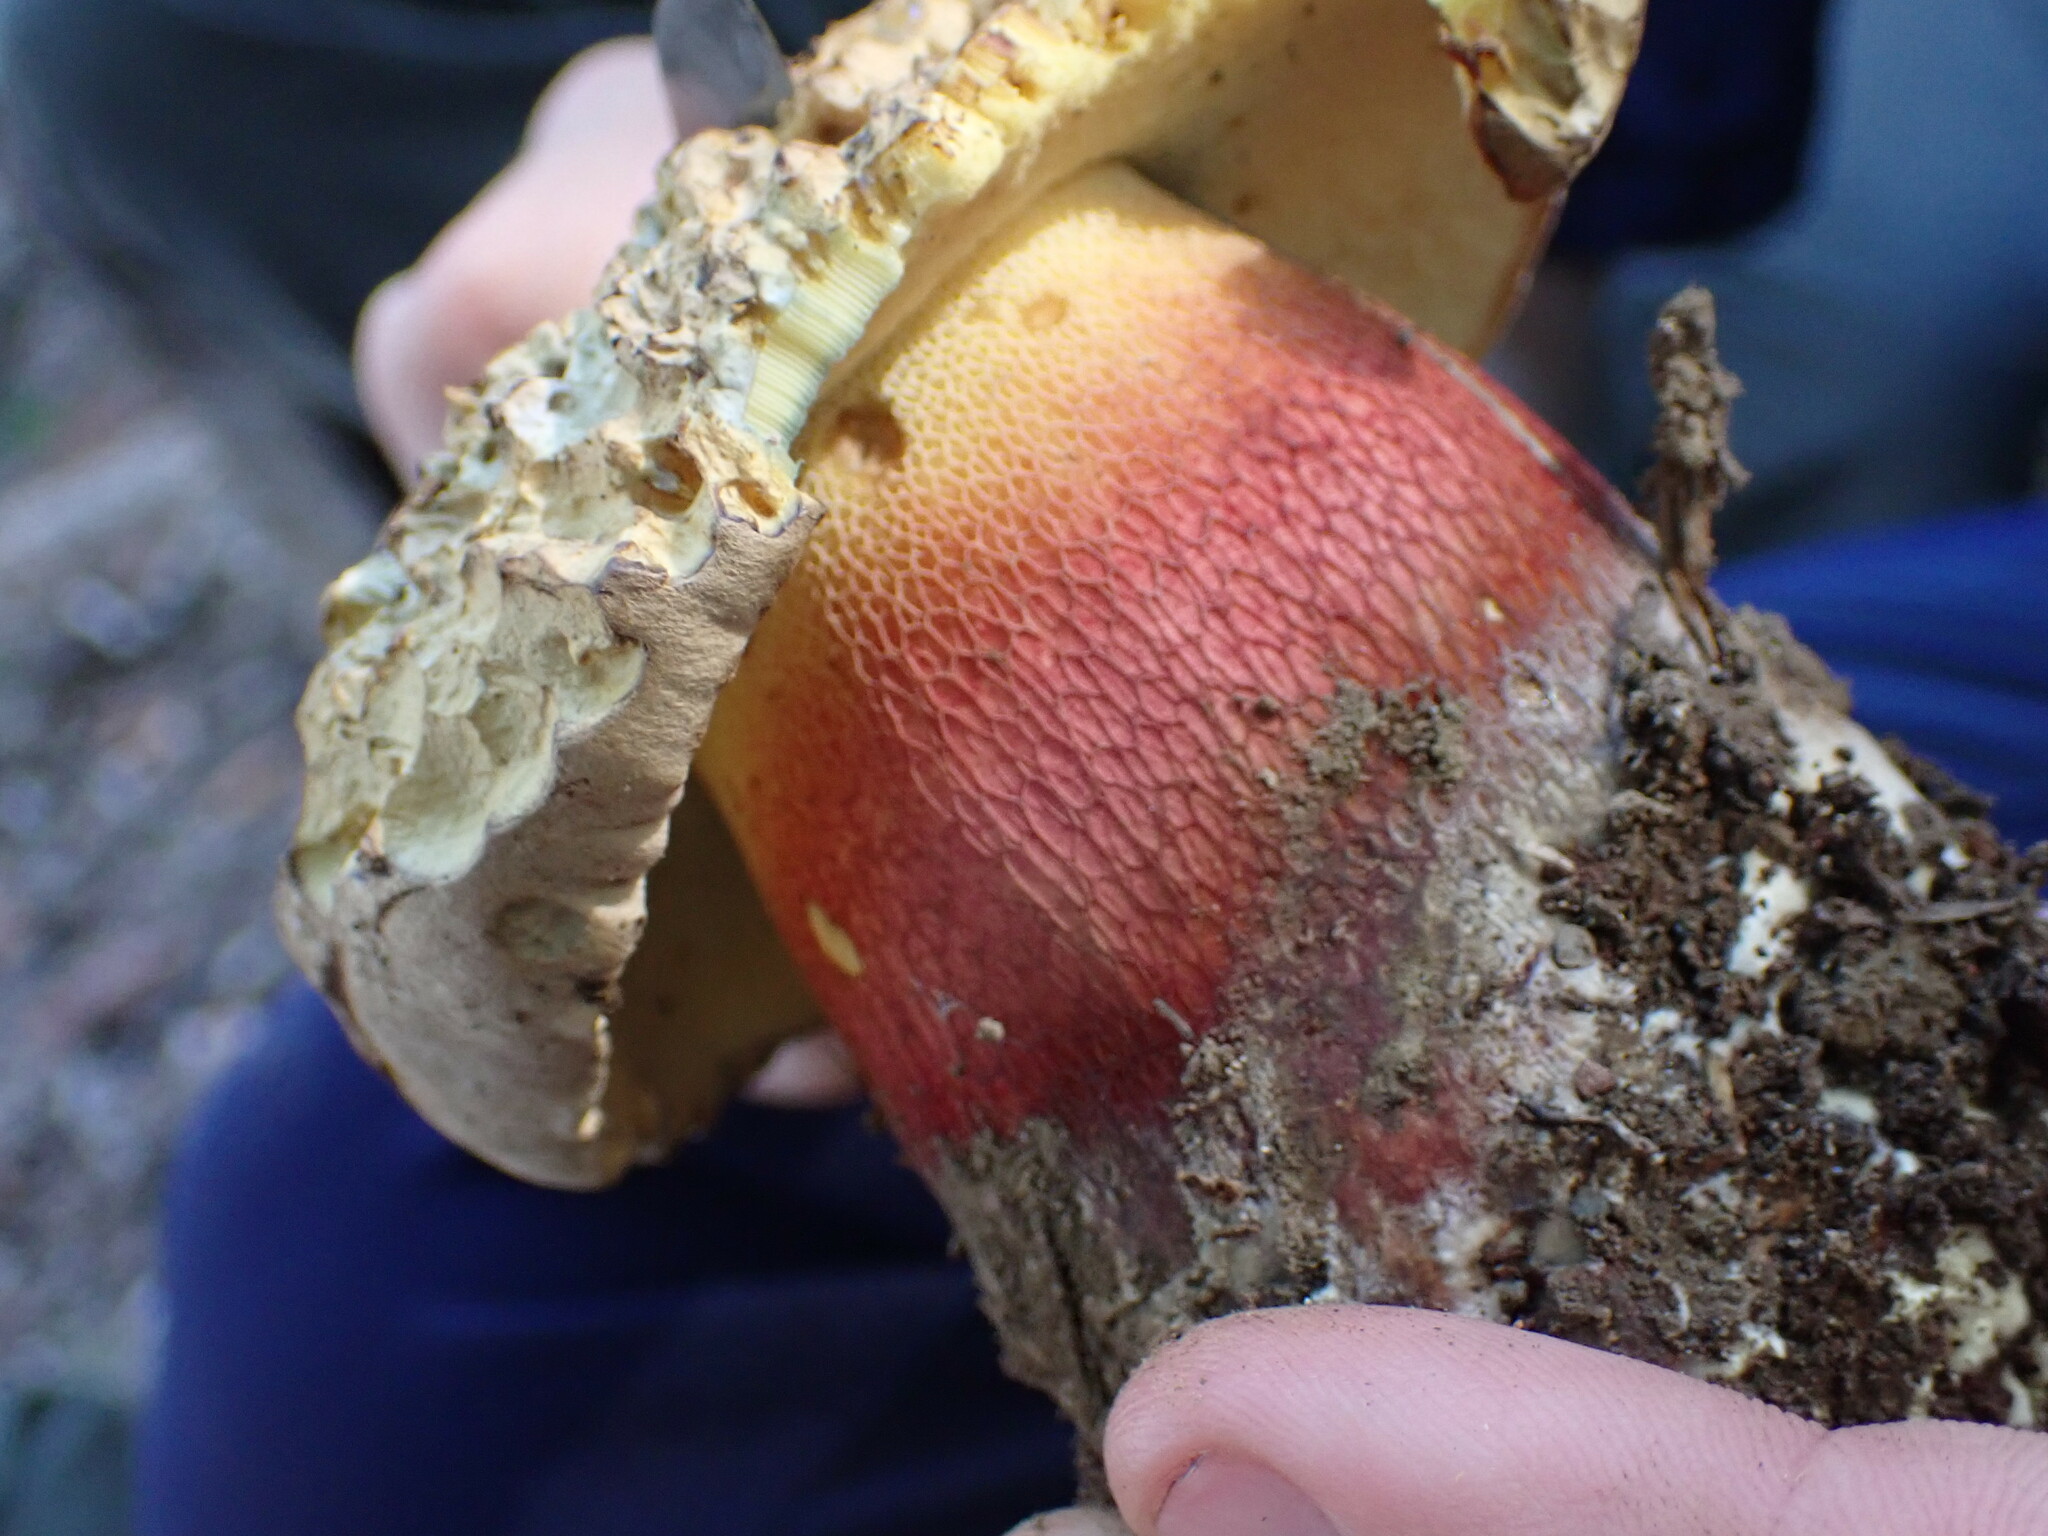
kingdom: Fungi
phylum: Basidiomycota
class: Agaricomycetes
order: Boletales
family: Boletaceae
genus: Caloboletus
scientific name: Caloboletus calopus
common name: Bitter beech bolete
